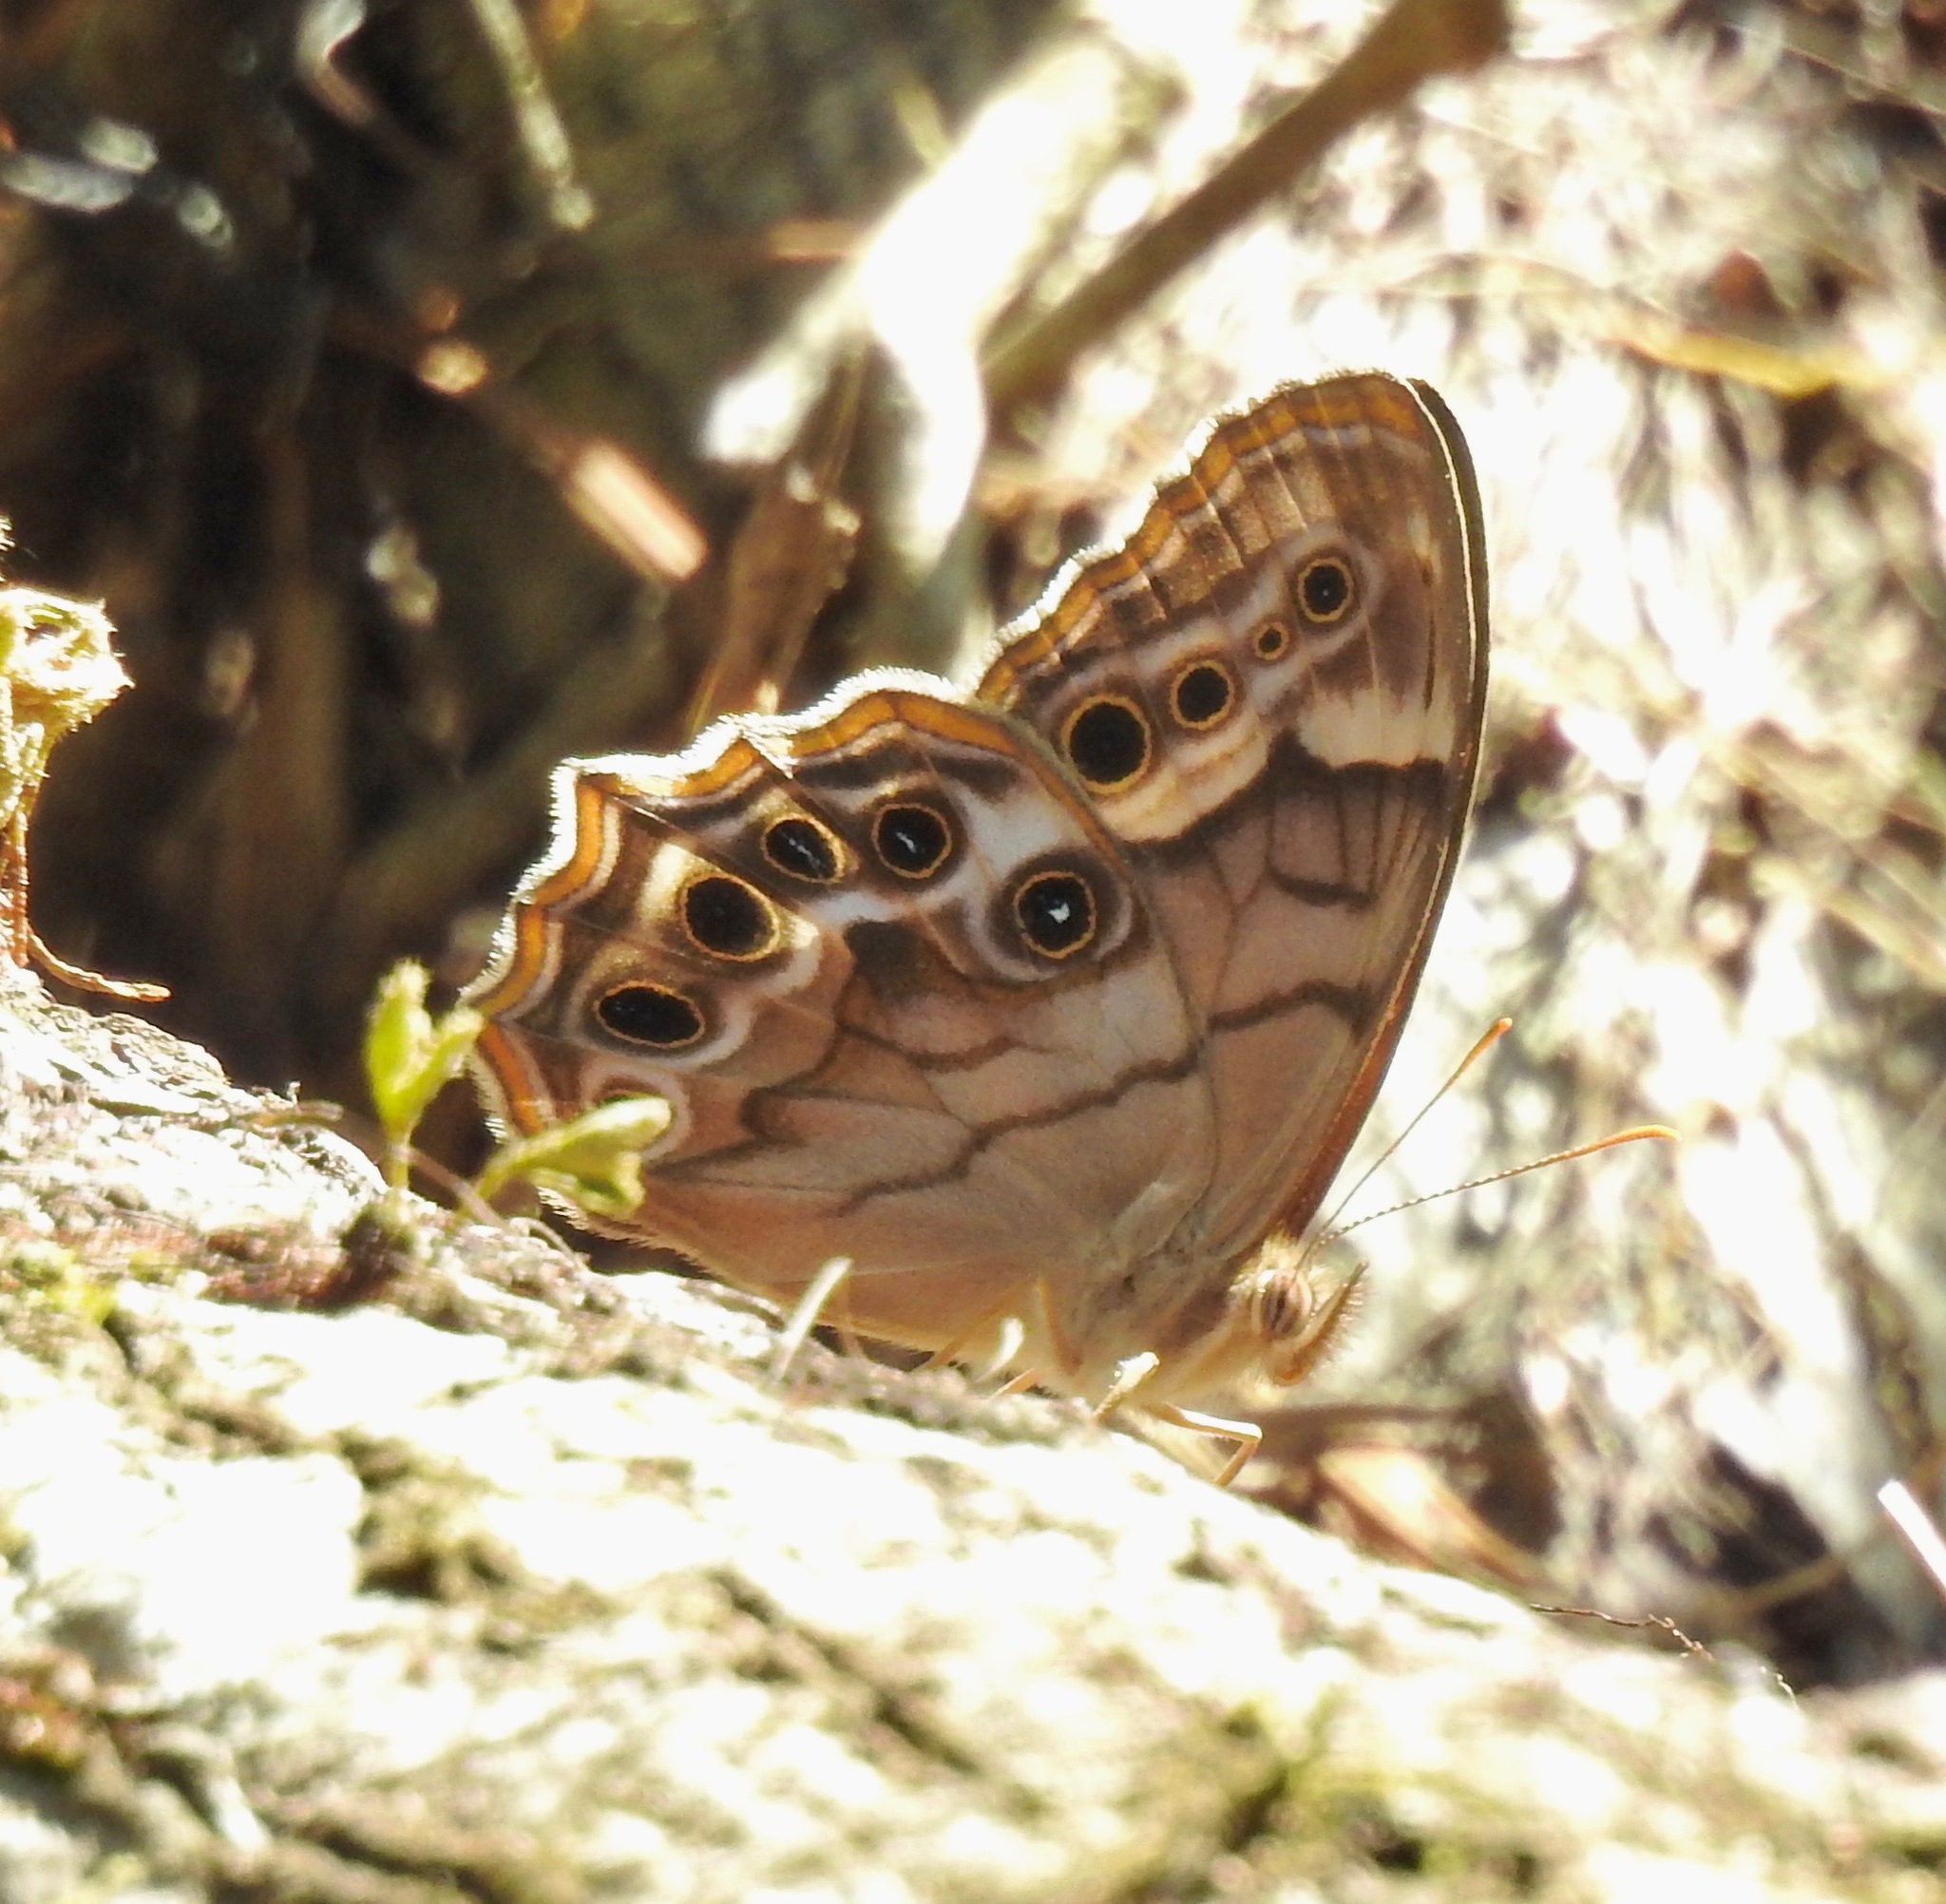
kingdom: Animalia
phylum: Arthropoda
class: Insecta
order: Lepidoptera
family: Nymphalidae
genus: Enodia
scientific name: Enodia portlandia
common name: Southern pearly-eye
